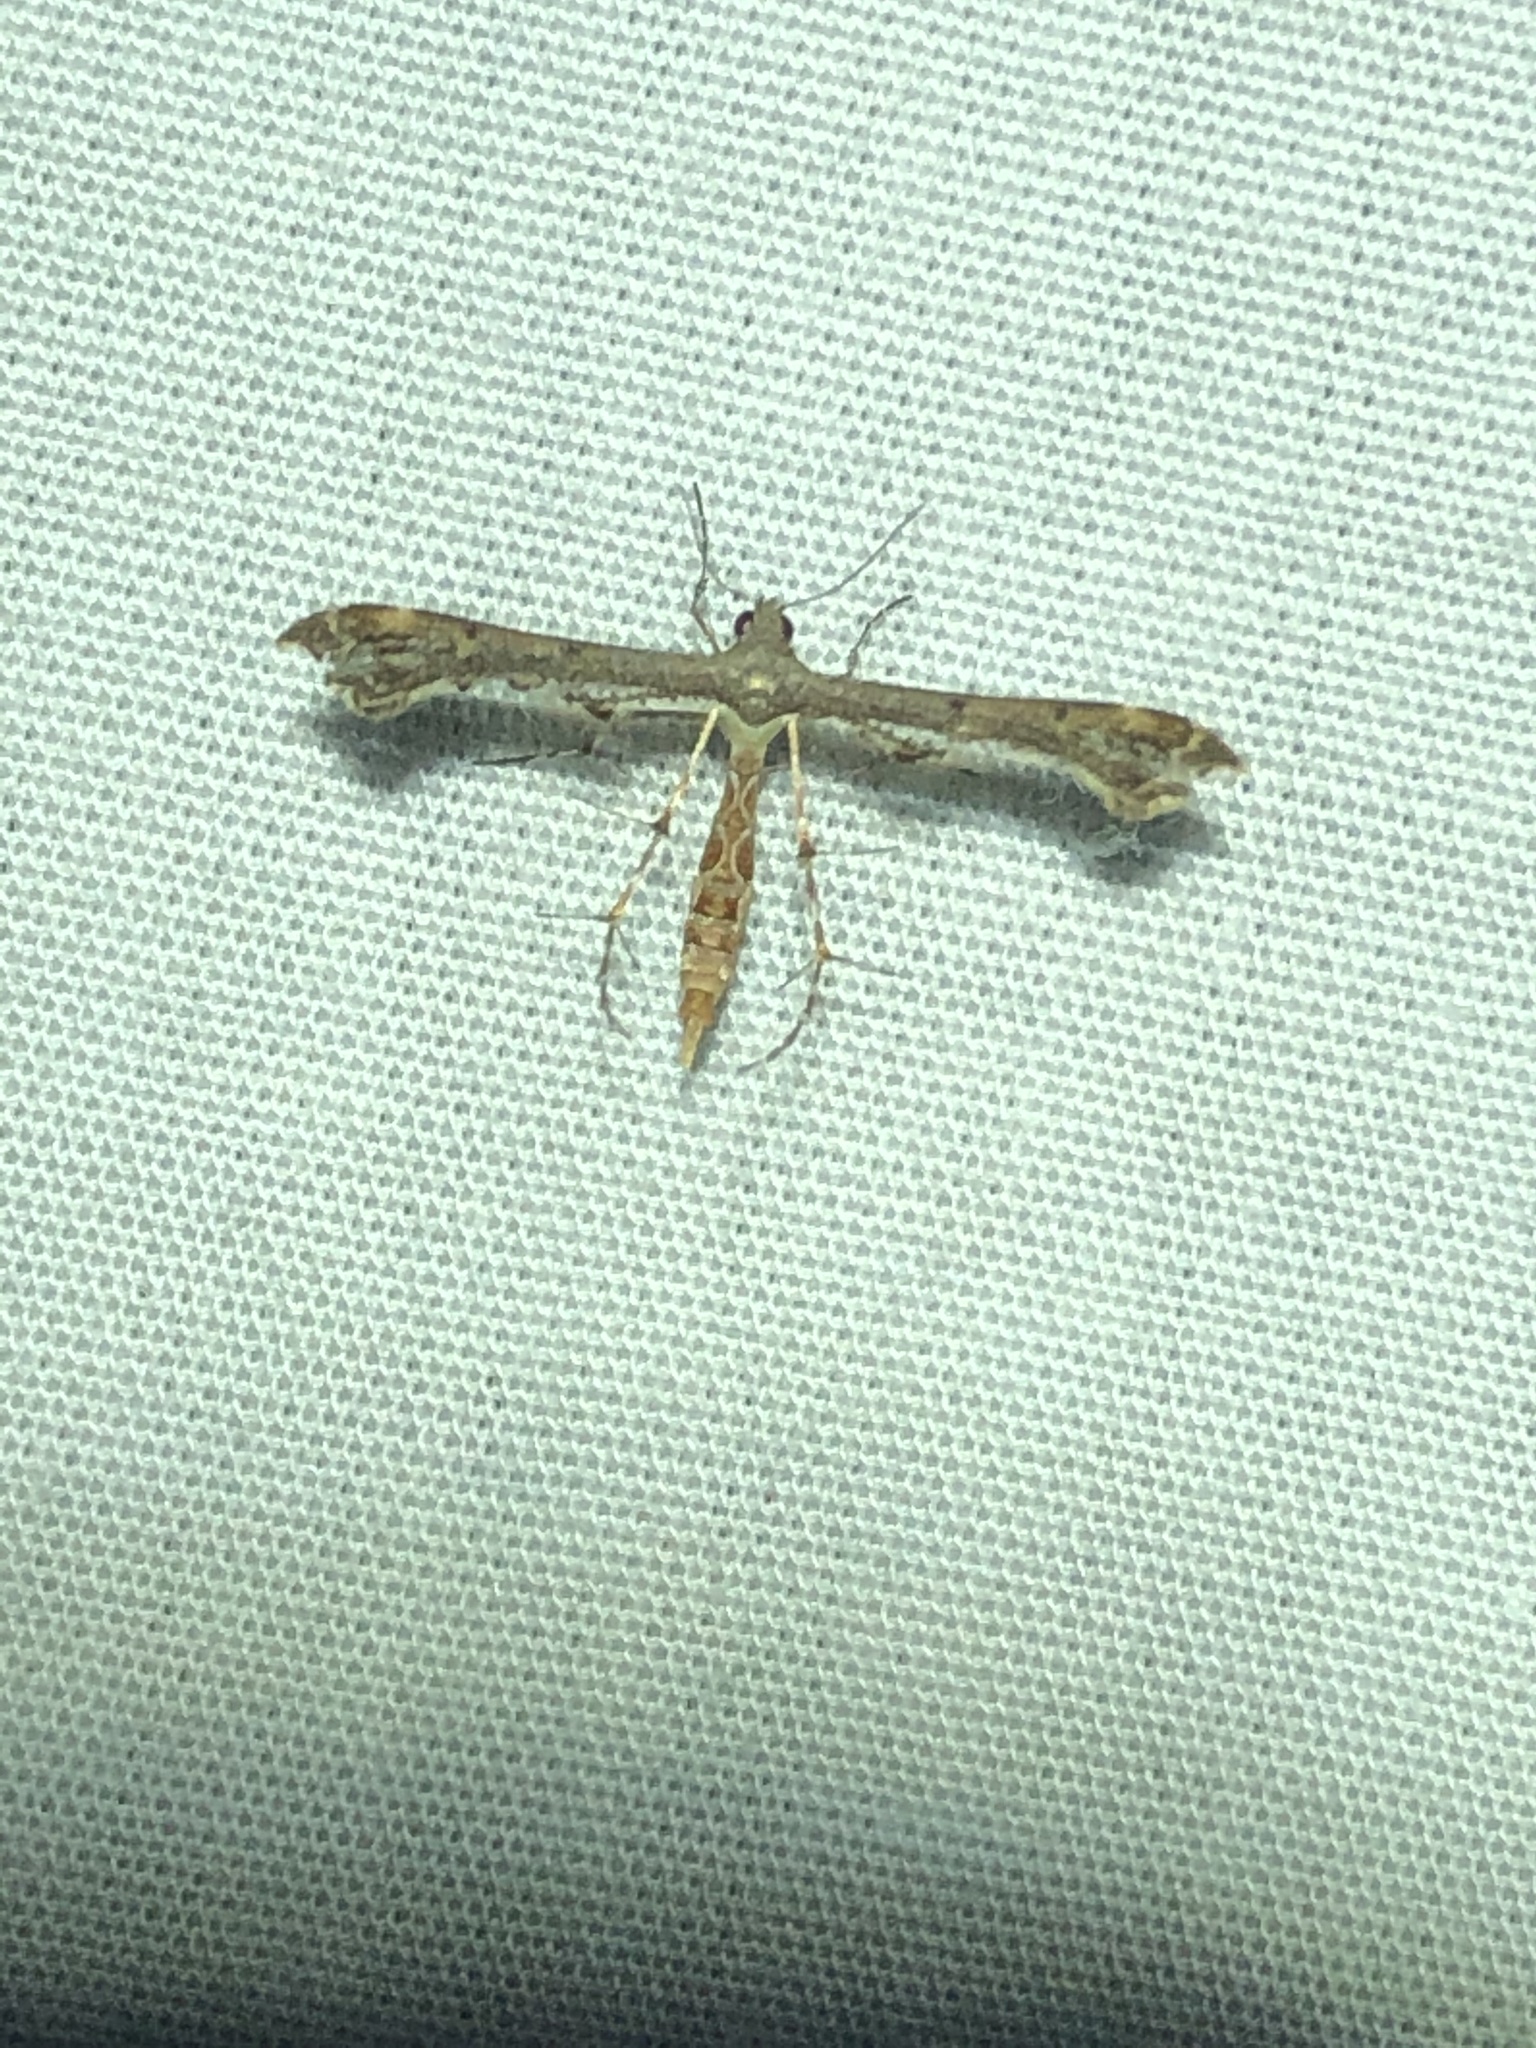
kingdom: Animalia
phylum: Arthropoda
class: Insecta
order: Lepidoptera
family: Pterophoridae
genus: Michaelophorus
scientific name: Michaelophorus indentatus
